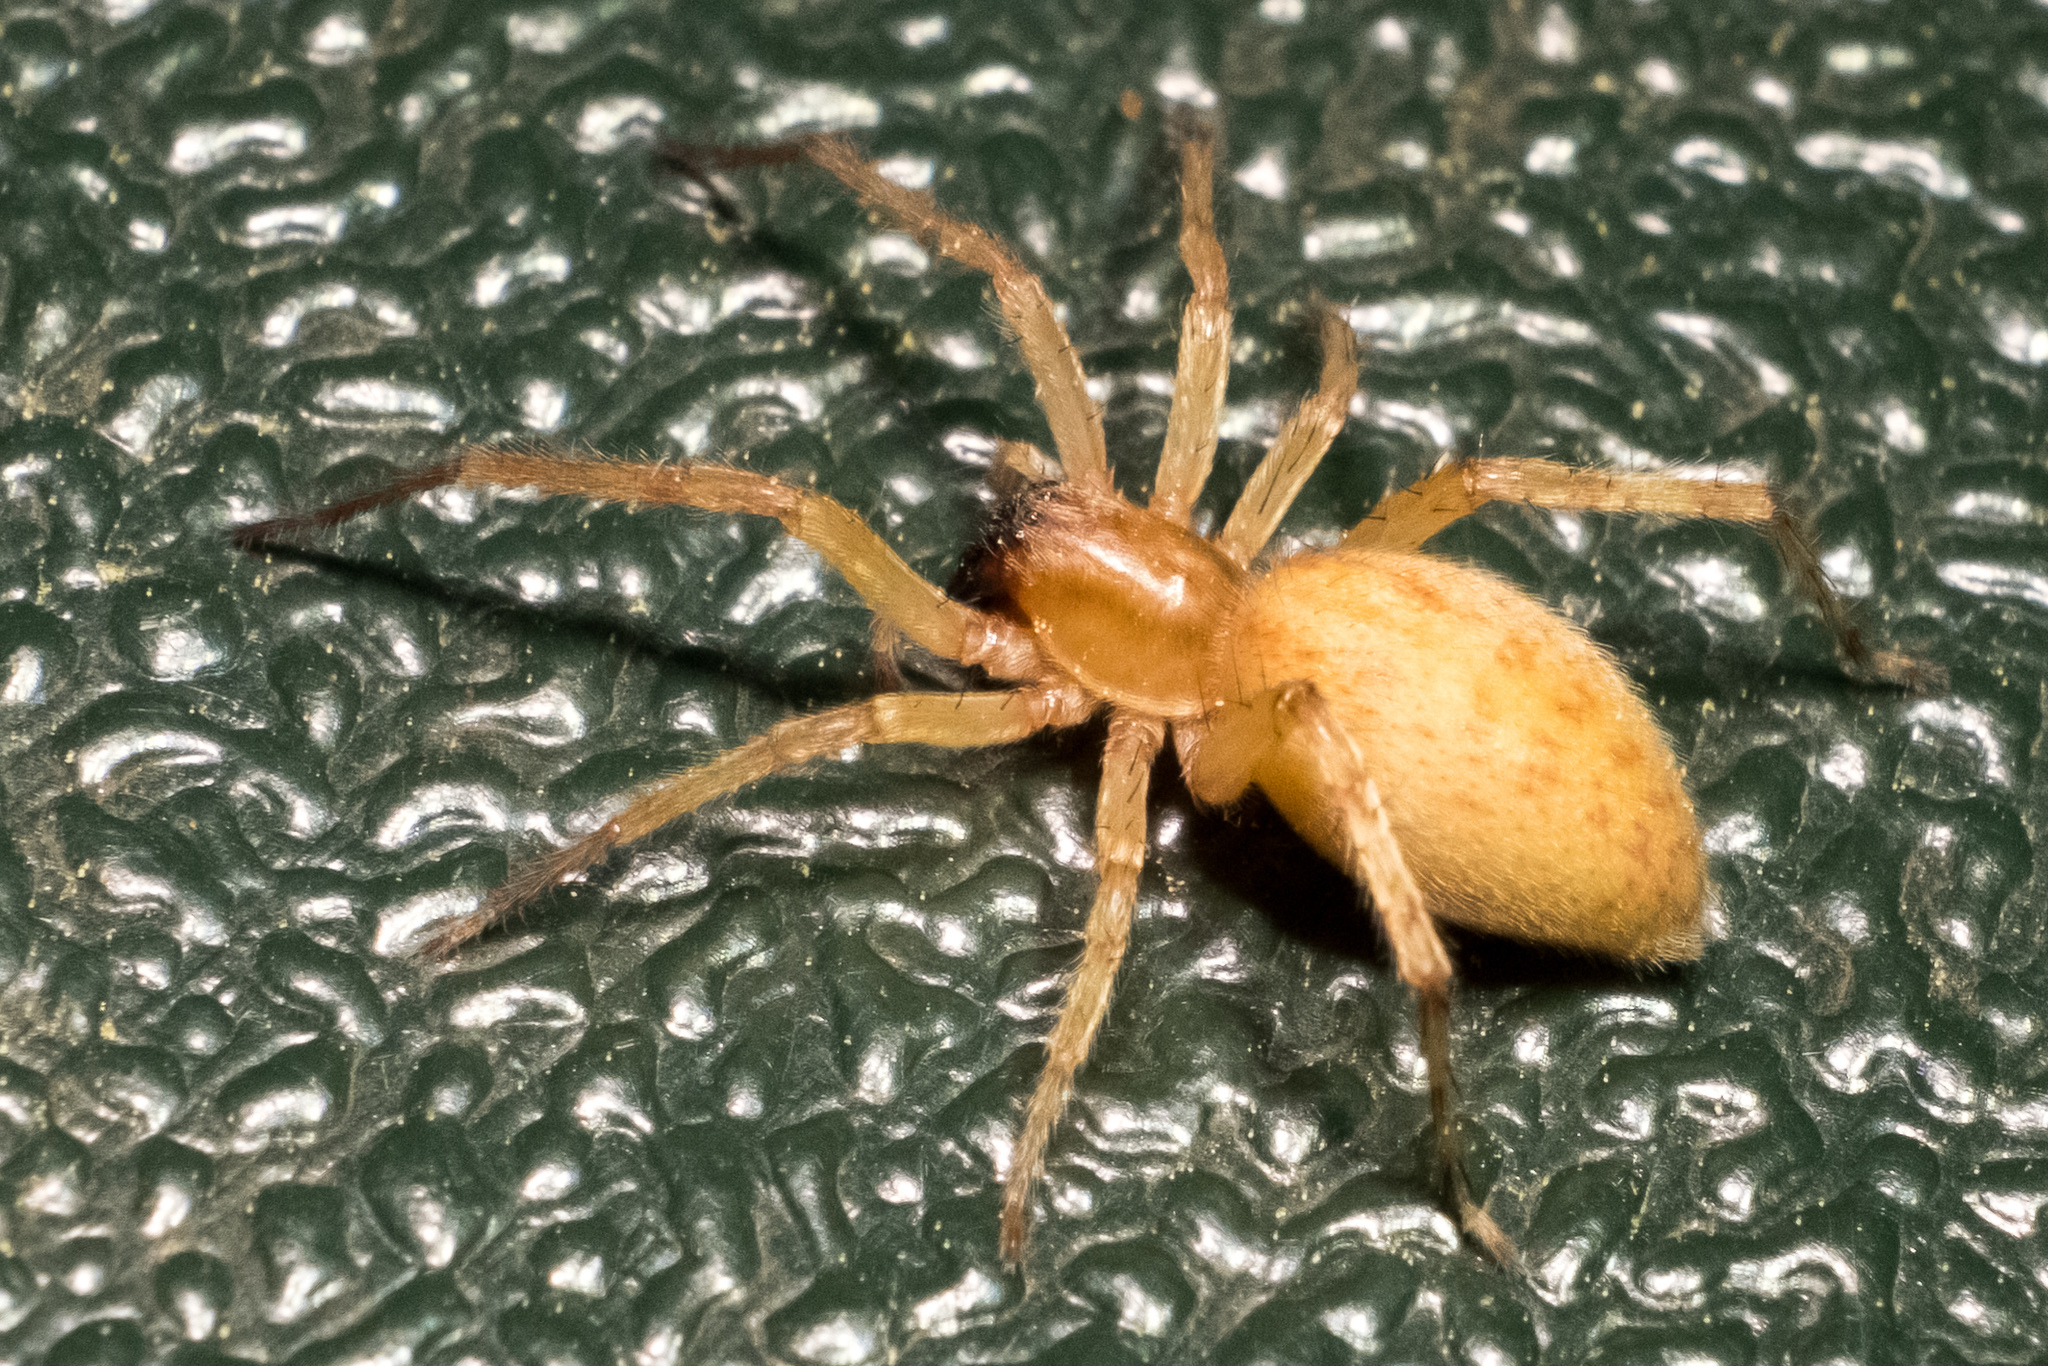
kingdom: Animalia
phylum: Arthropoda
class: Arachnida
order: Araneae
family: Anyphaenidae
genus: Hibana
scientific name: Hibana gracilis
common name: Garden ghost spider
